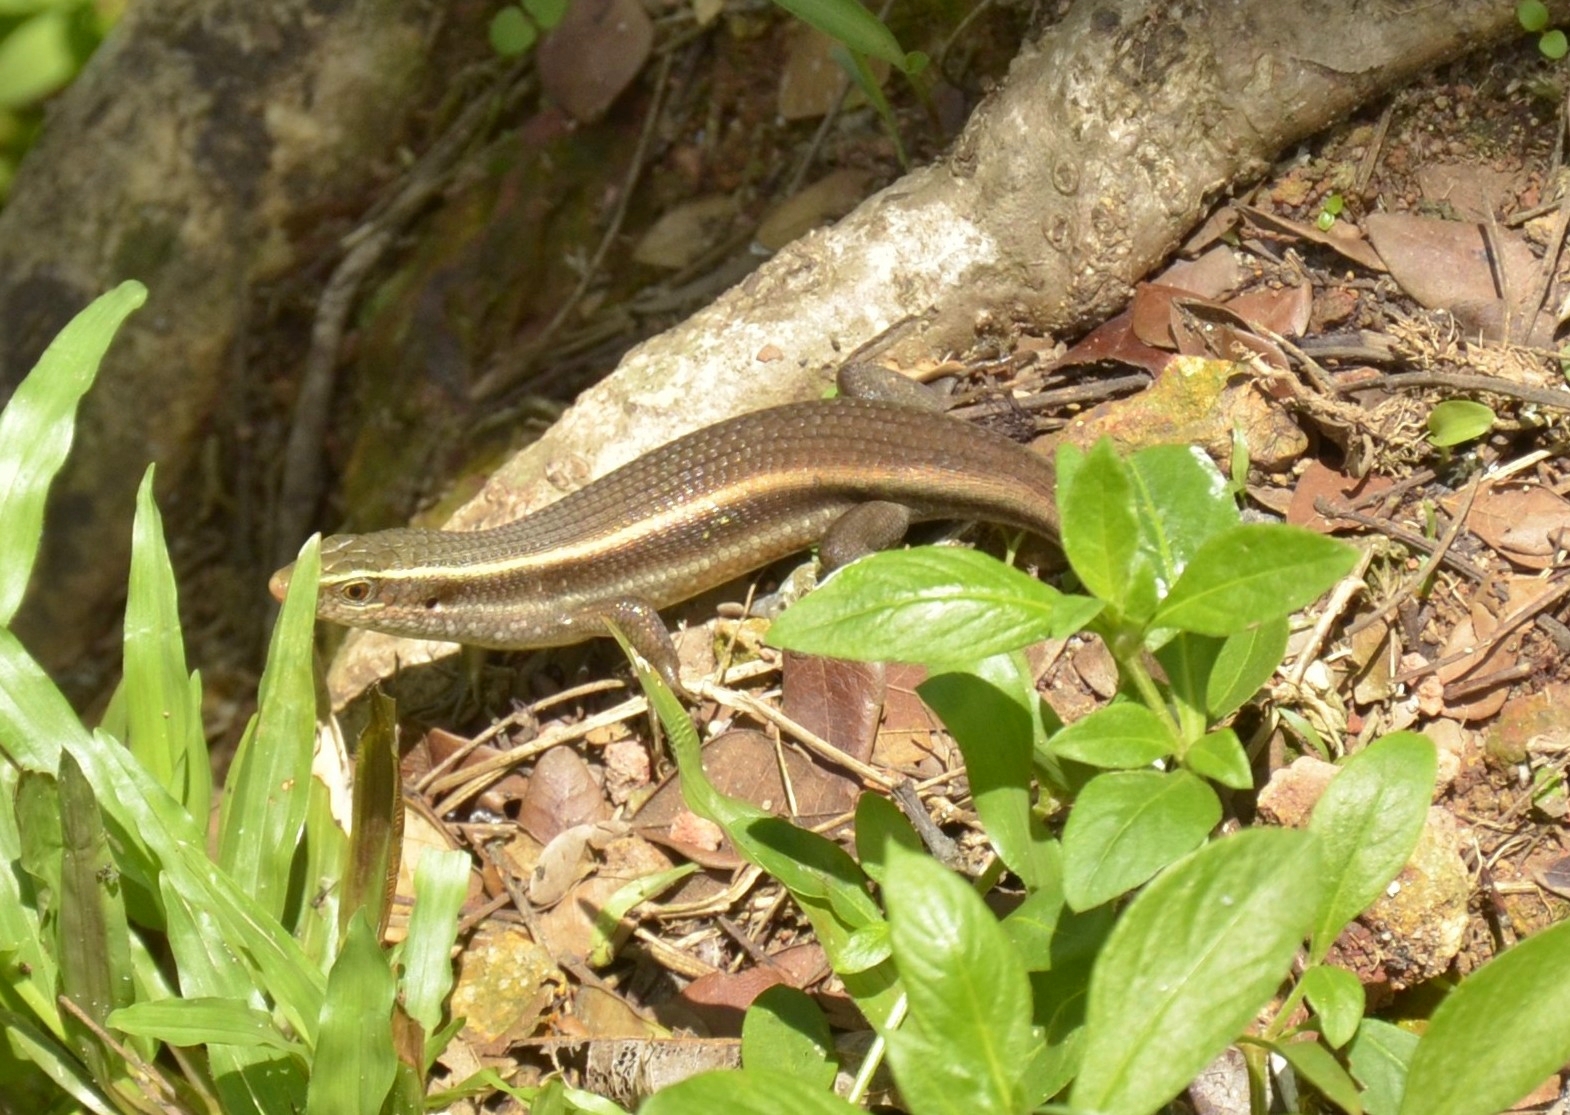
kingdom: Animalia
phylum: Chordata
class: Squamata
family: Scincidae
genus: Eutropis
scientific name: Eutropis carinata
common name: Keeled indian mabuya
